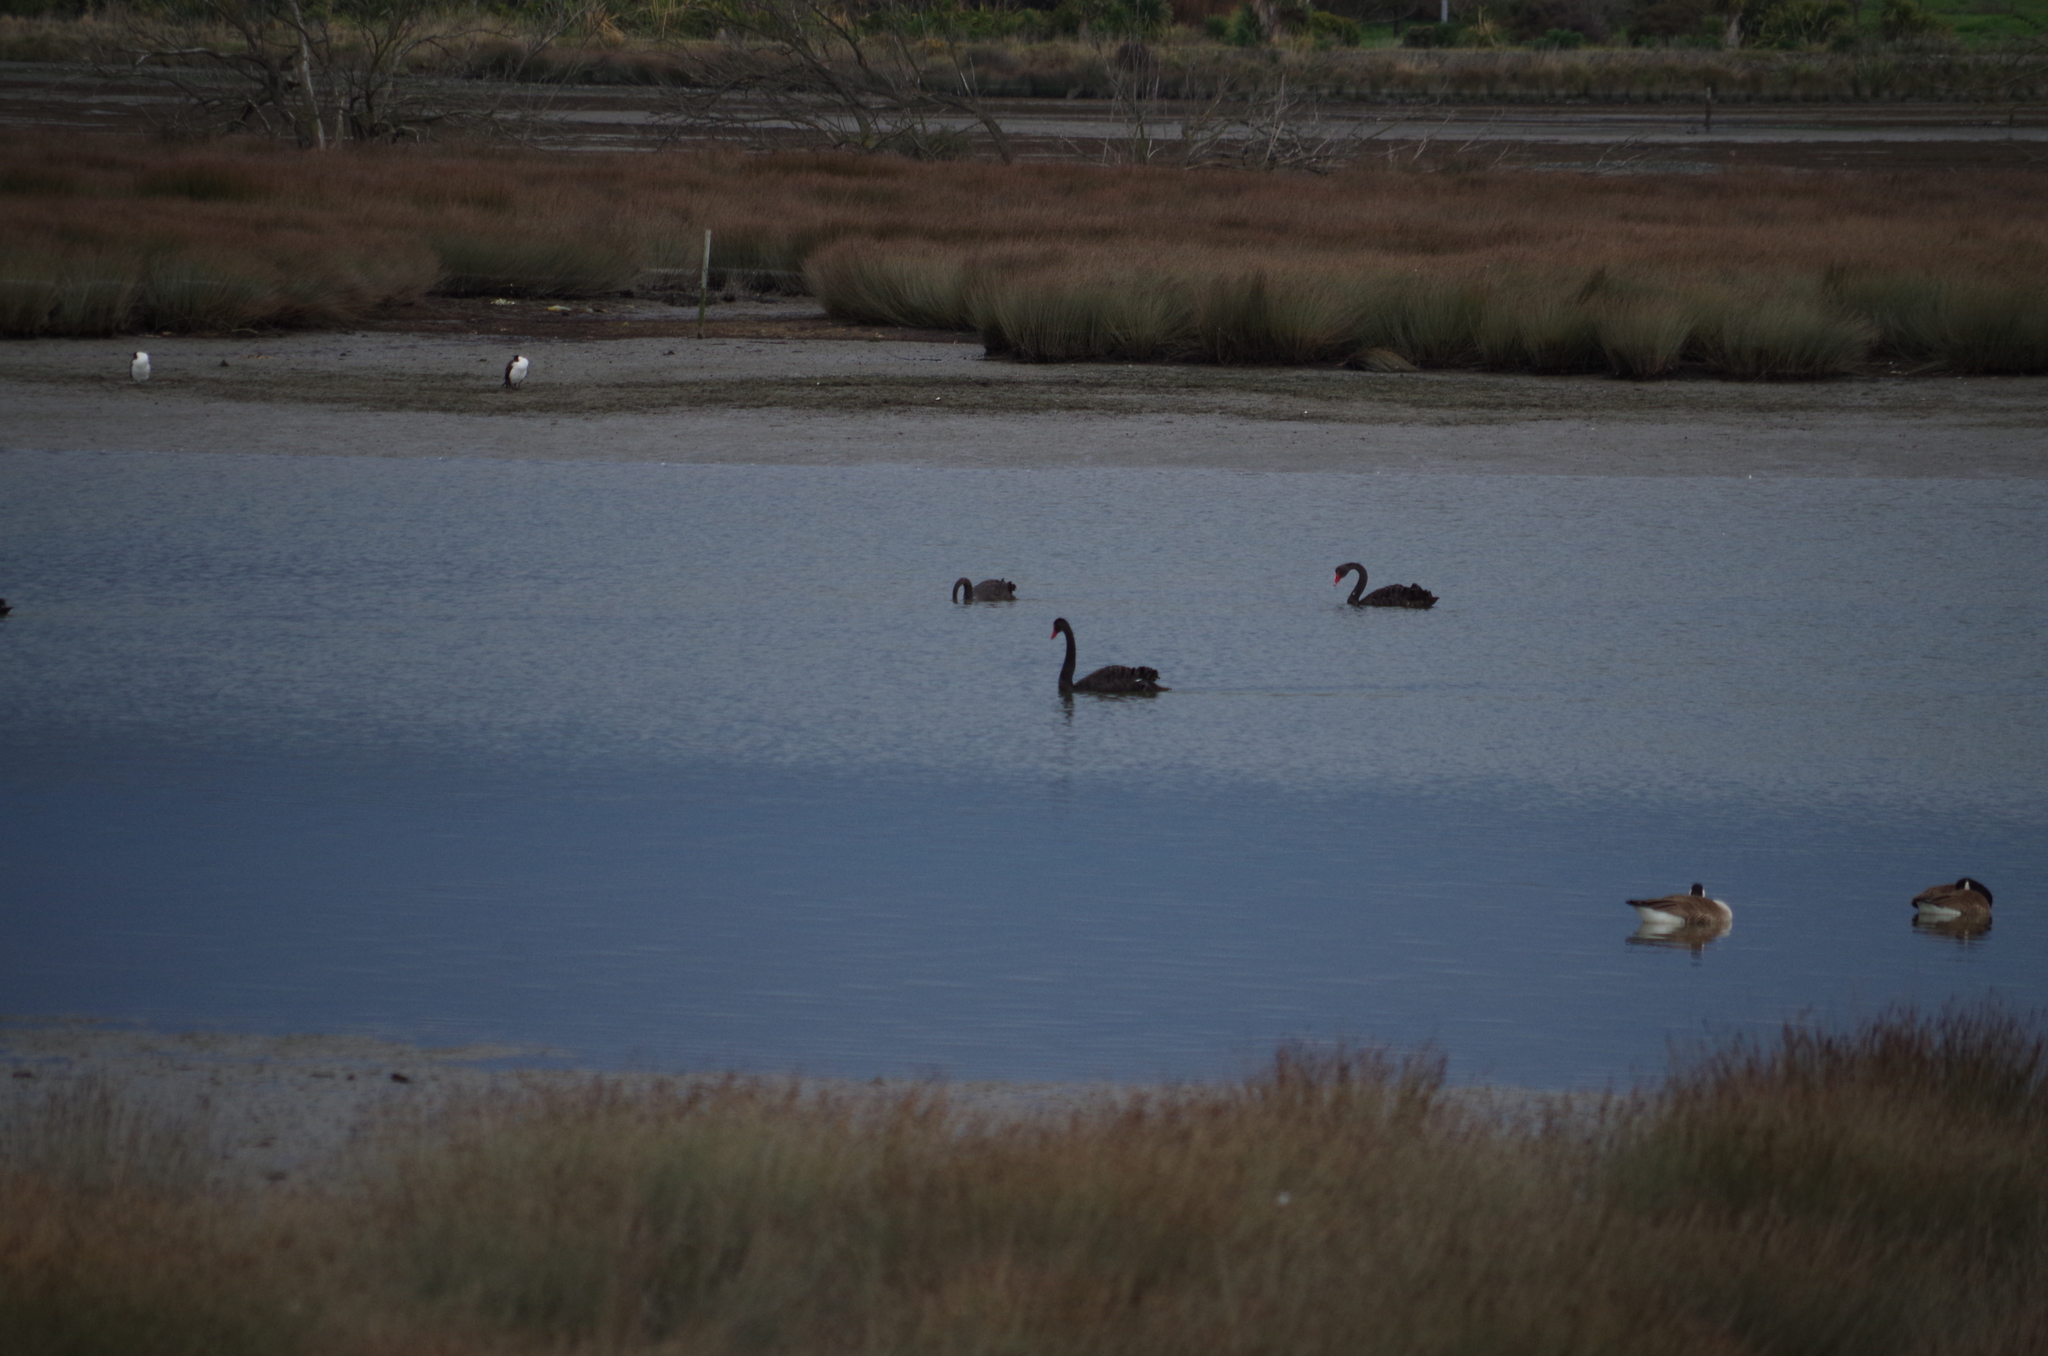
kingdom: Animalia
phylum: Chordata
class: Aves
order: Anseriformes
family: Anatidae
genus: Cygnus
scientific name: Cygnus atratus
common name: Black swan
